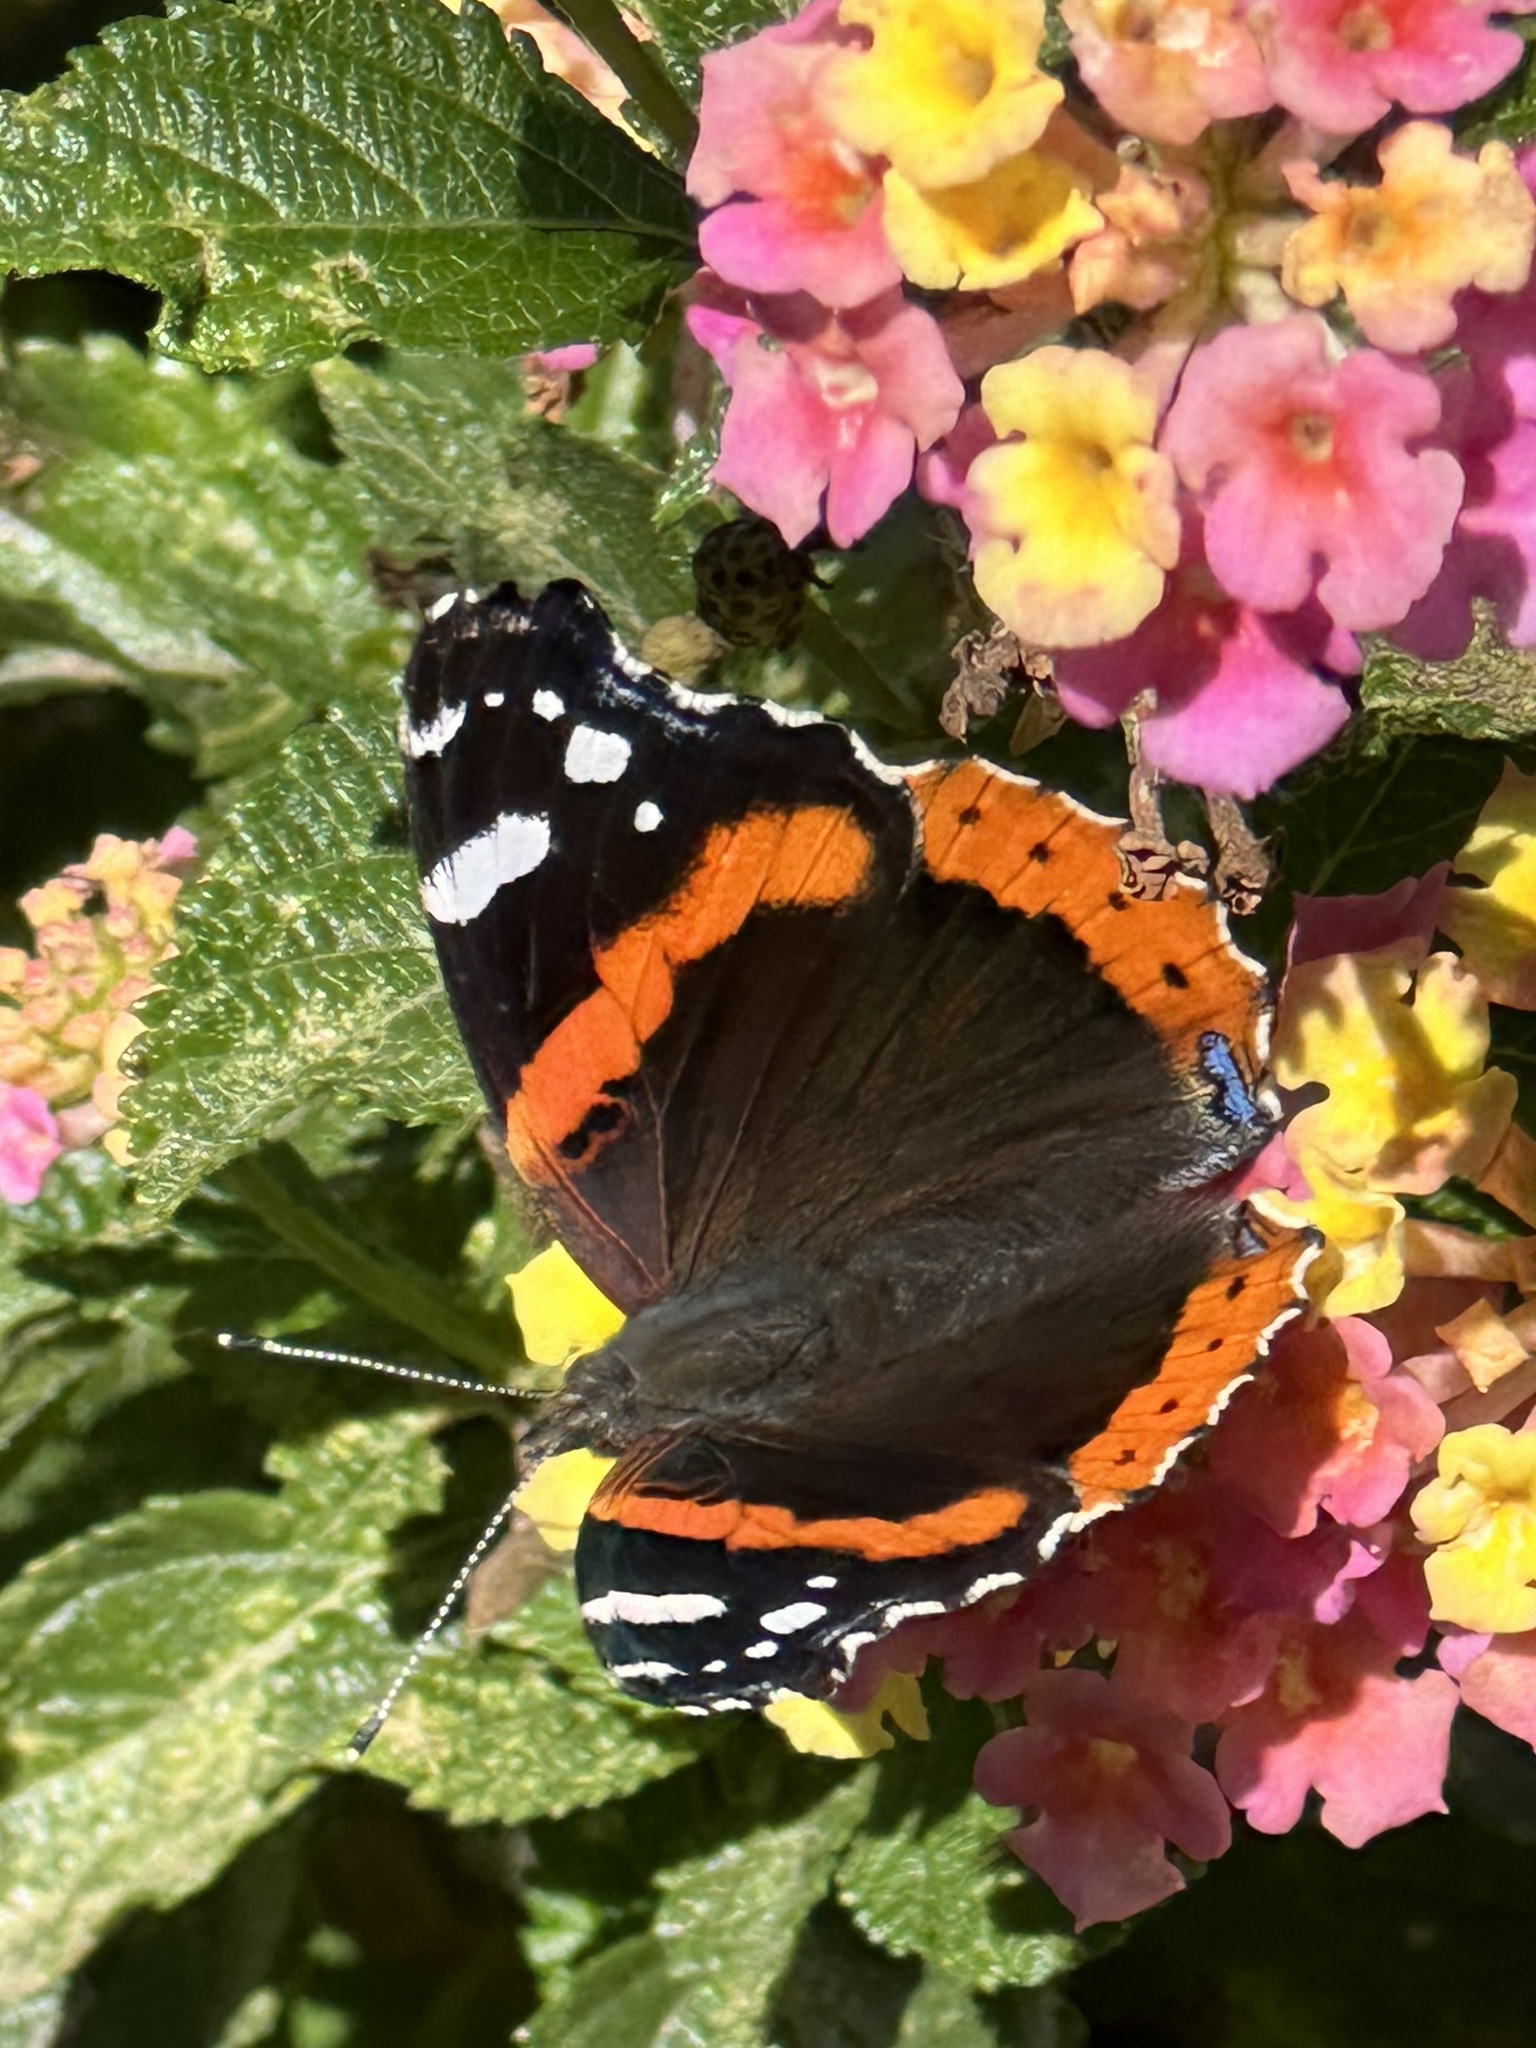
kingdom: Animalia
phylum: Arthropoda
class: Insecta
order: Lepidoptera
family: Nymphalidae
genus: Vanessa
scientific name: Vanessa atalanta
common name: Red admiral
